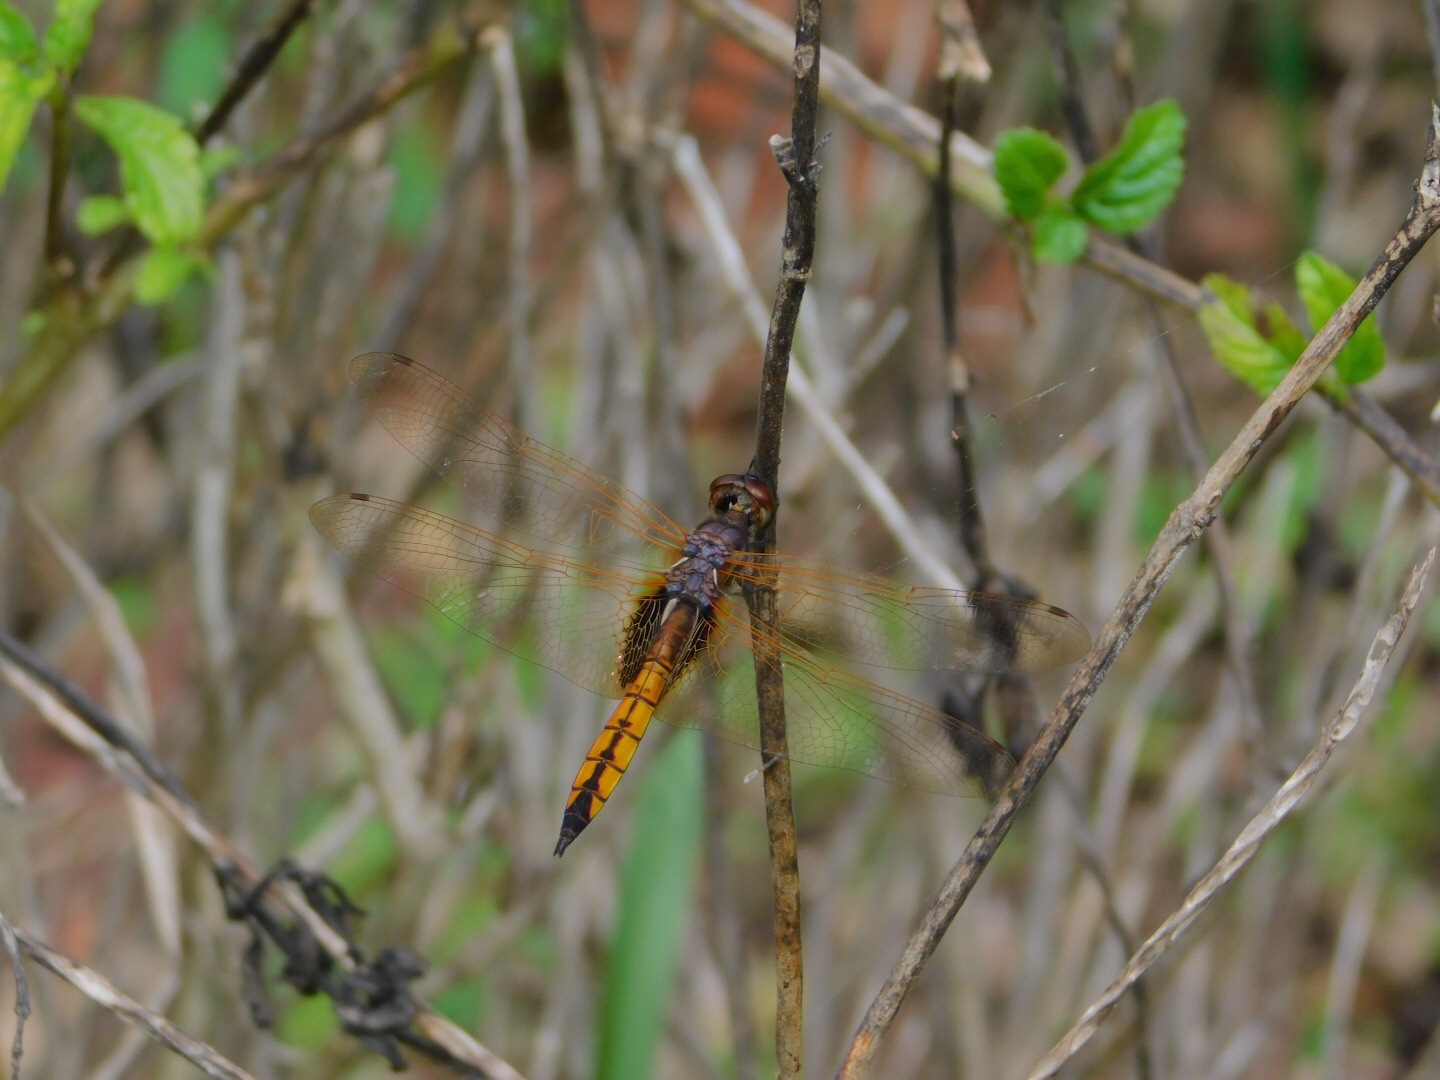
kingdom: Animalia
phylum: Arthropoda
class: Insecta
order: Odonata
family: Libellulidae
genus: Miathyria
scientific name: Miathyria marcella
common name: Hyacinth glider
